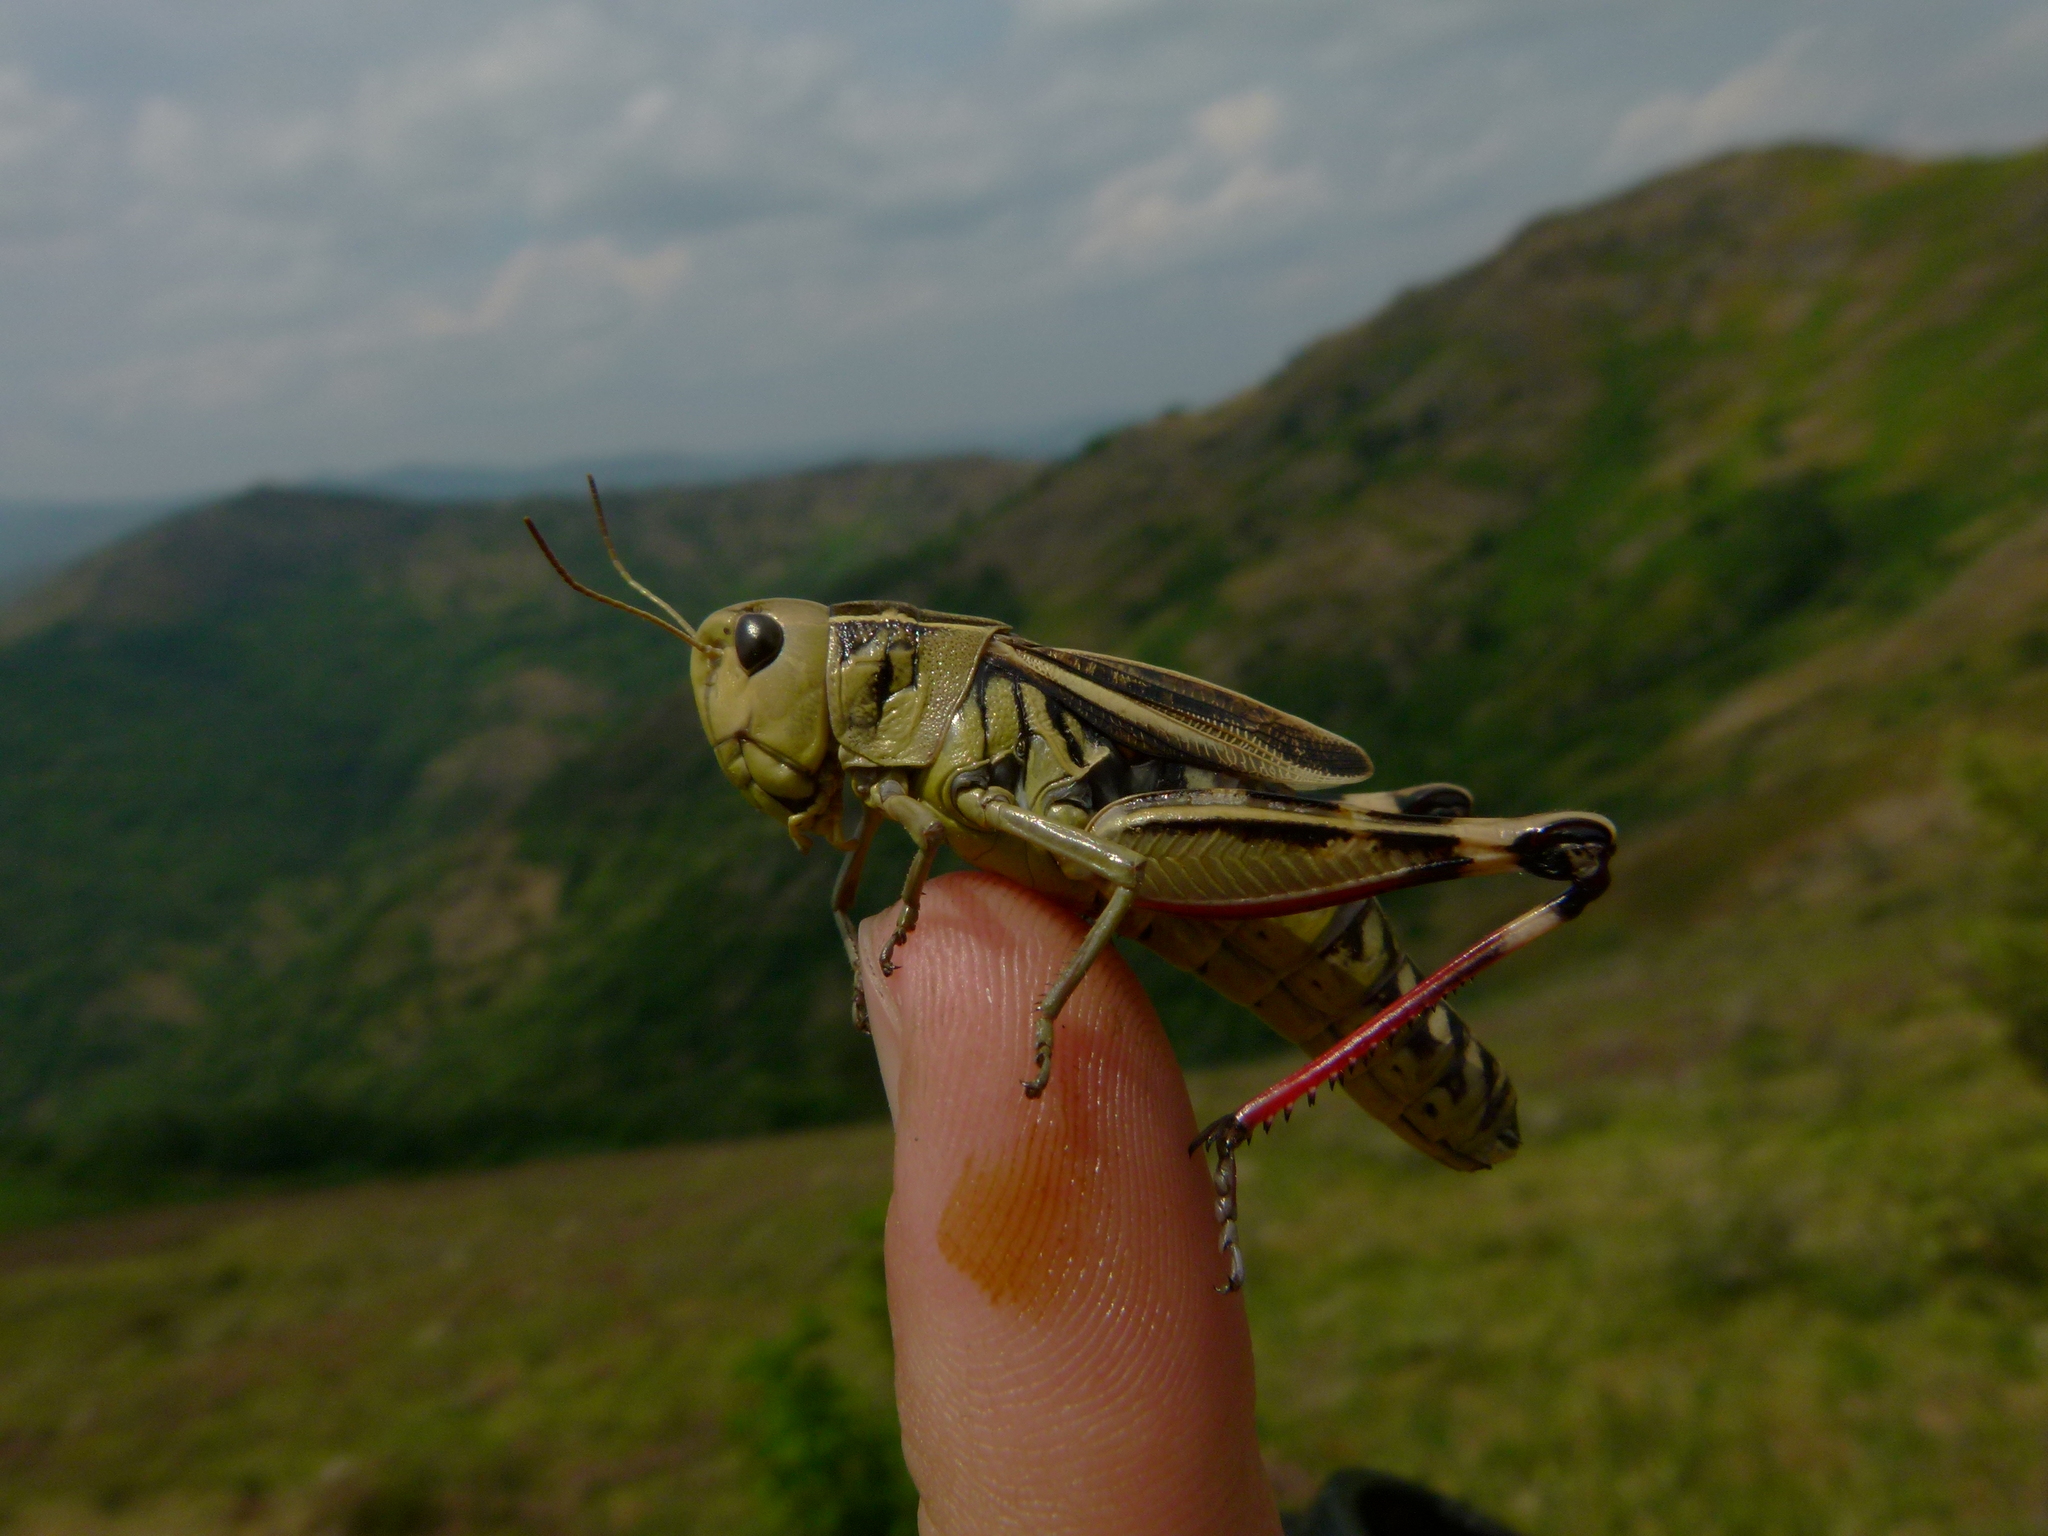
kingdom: Animalia
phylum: Arthropoda
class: Insecta
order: Orthoptera
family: Acrididae
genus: Arcyptera
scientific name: Arcyptera fusca
